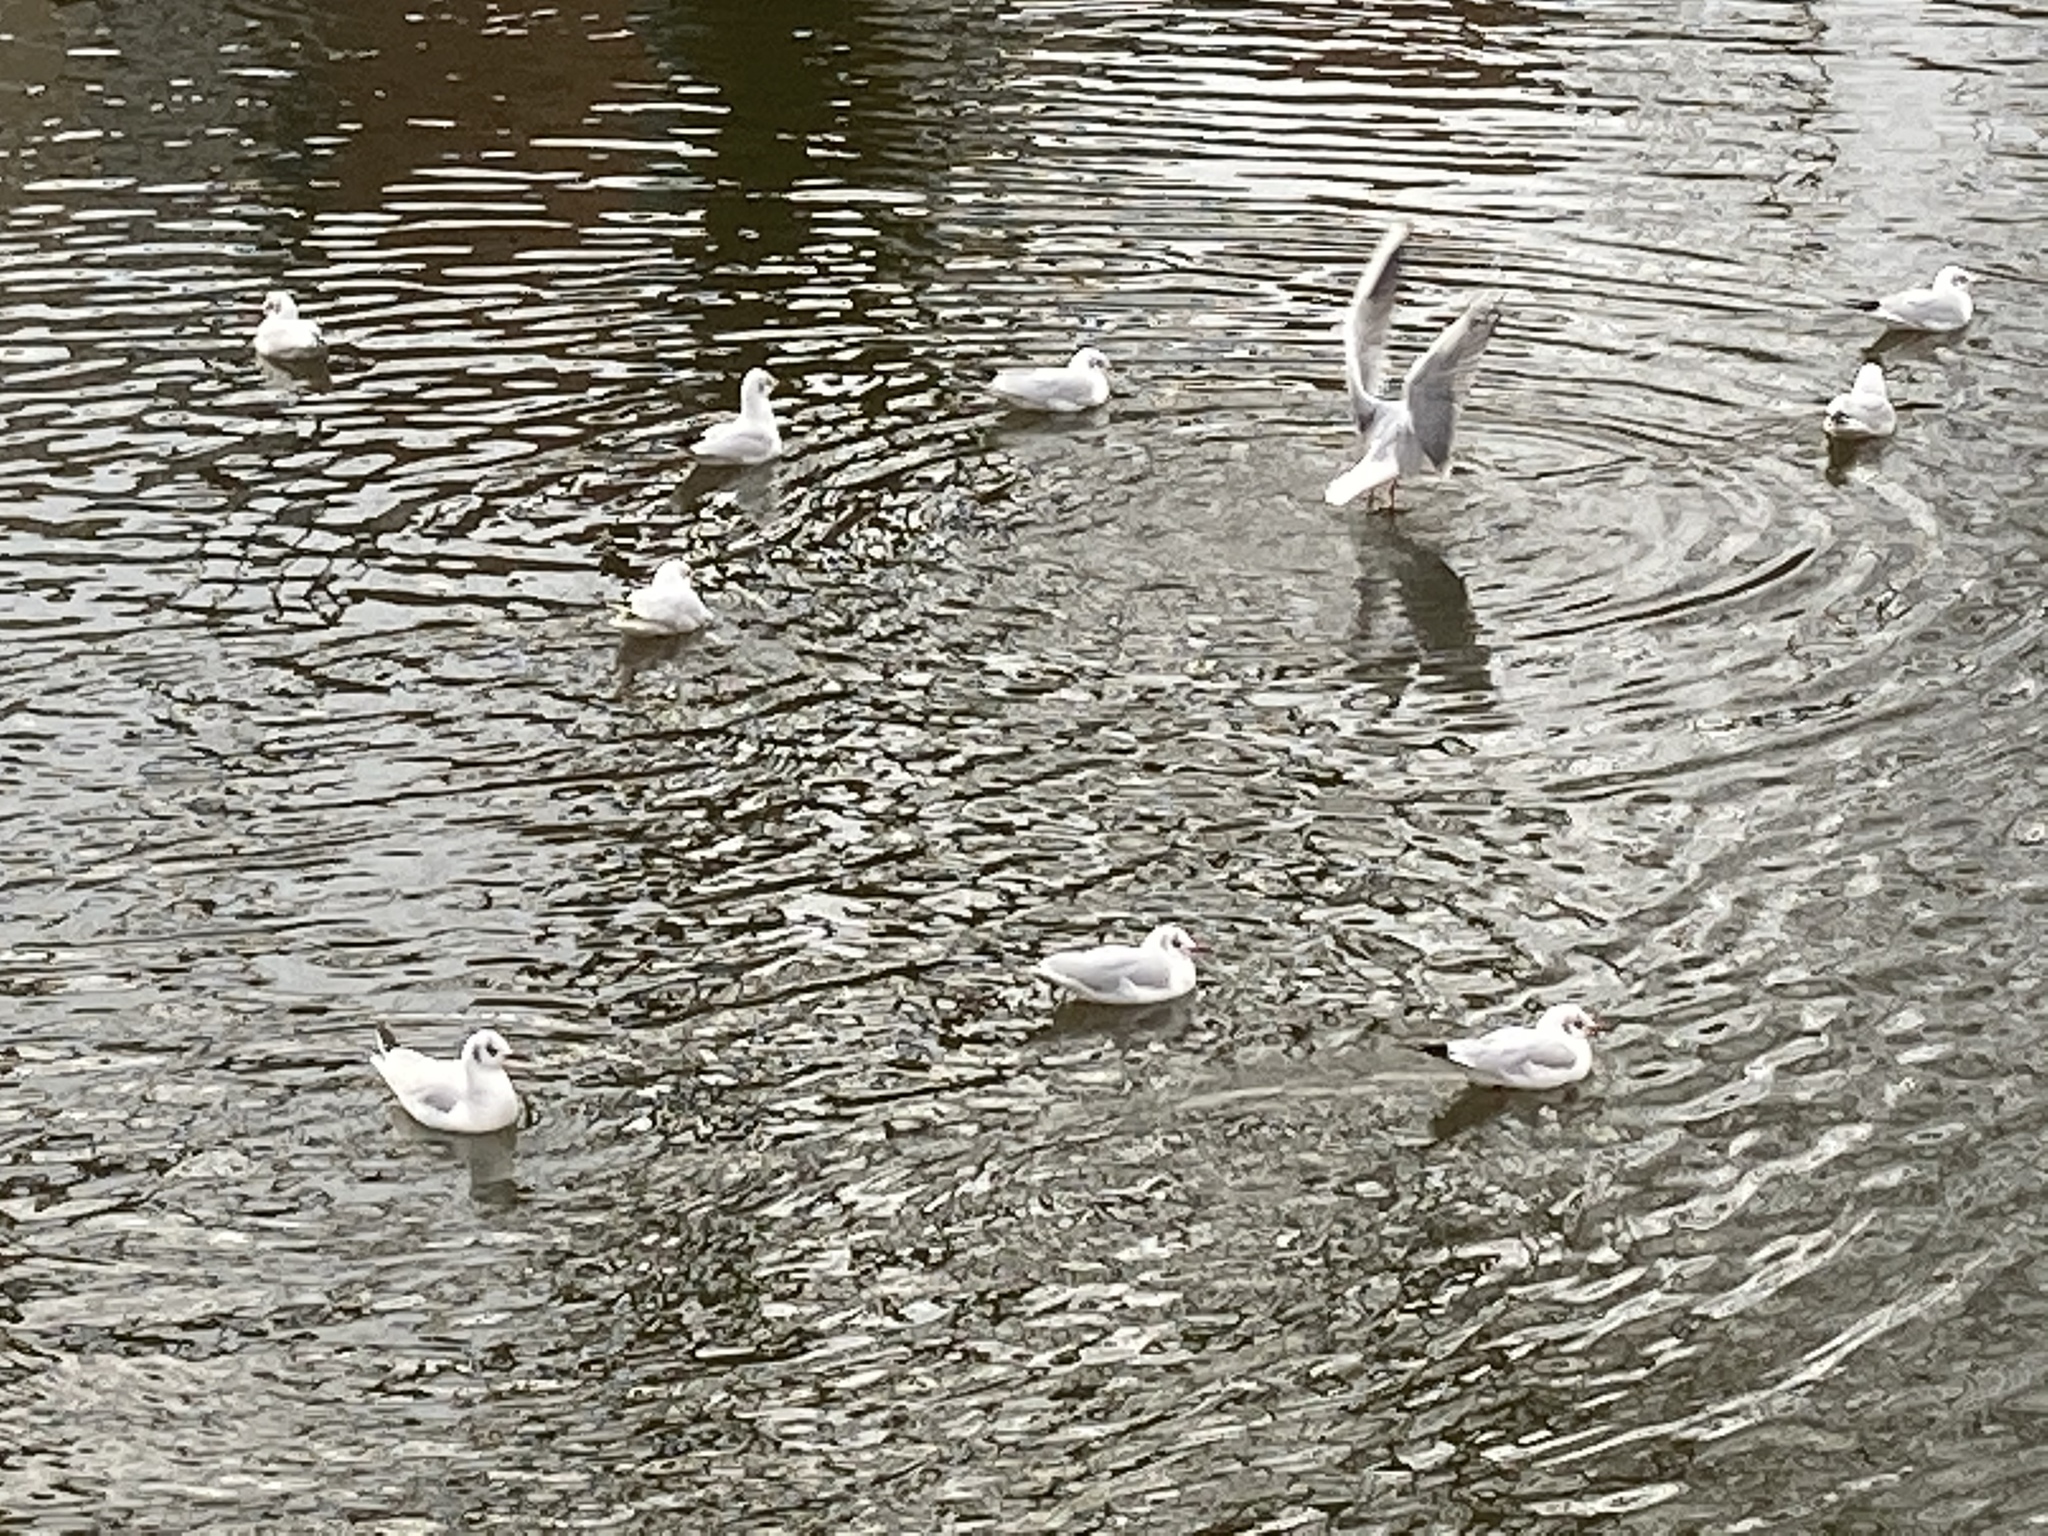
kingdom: Animalia
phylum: Chordata
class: Aves
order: Charadriiformes
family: Laridae
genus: Chroicocephalus
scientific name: Chroicocephalus ridibundus
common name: Black-headed gull
